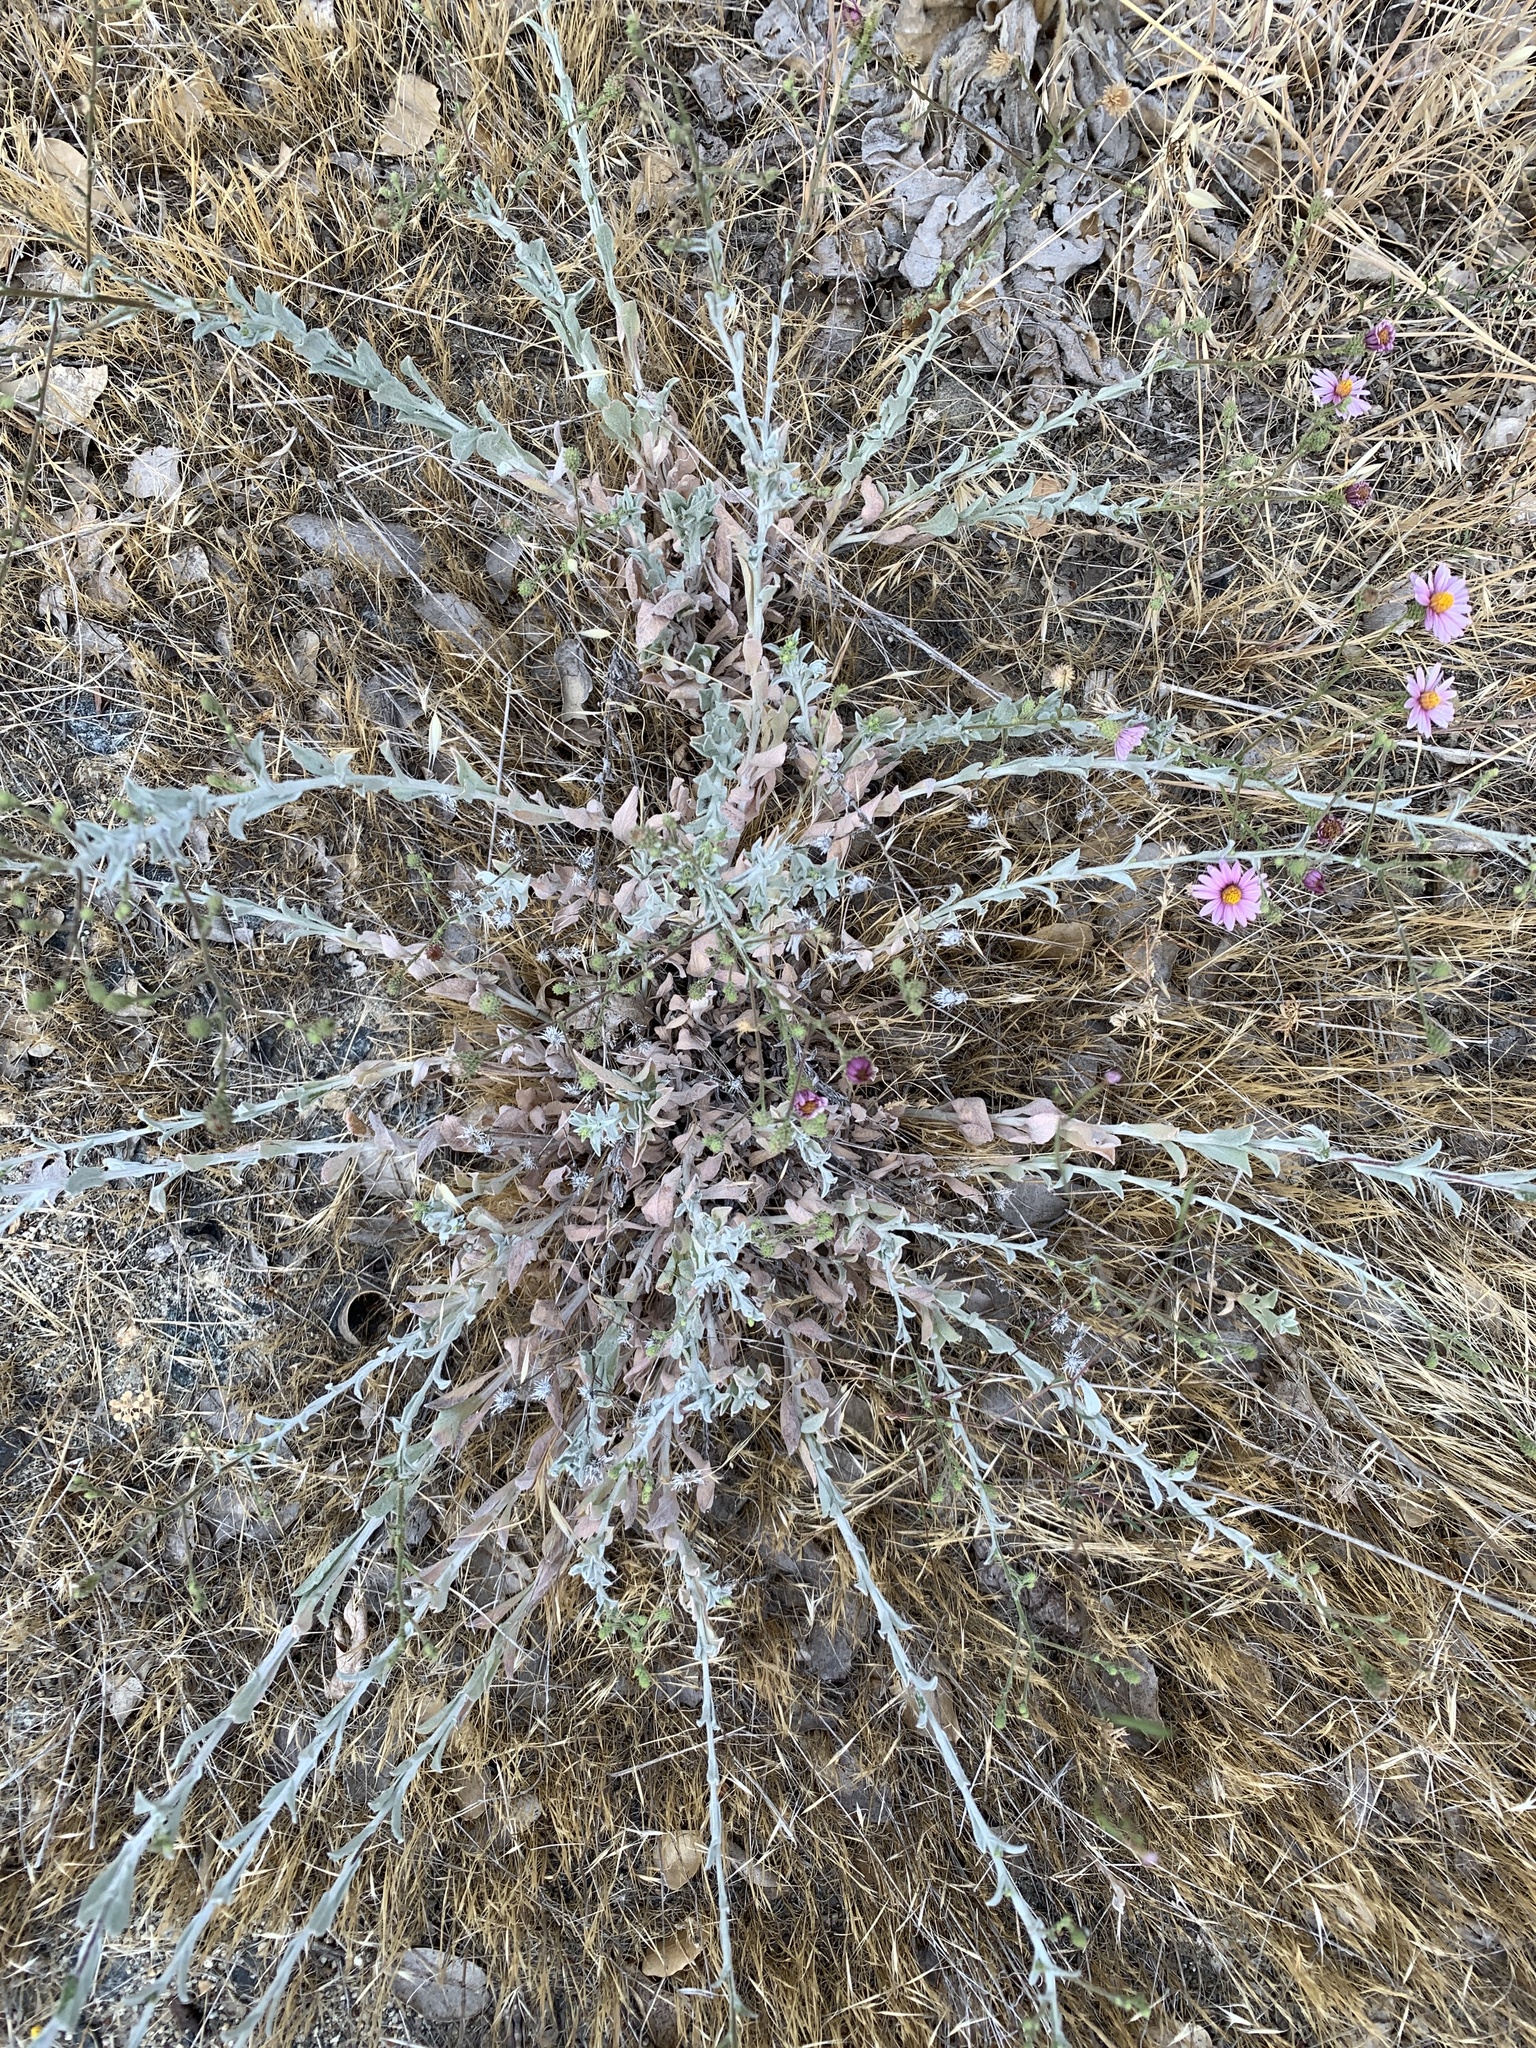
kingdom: Plantae
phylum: Tracheophyta
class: Magnoliopsida
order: Asterales
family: Asteraceae
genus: Corethrogyne
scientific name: Corethrogyne filaginifolia
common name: Sand-aster
